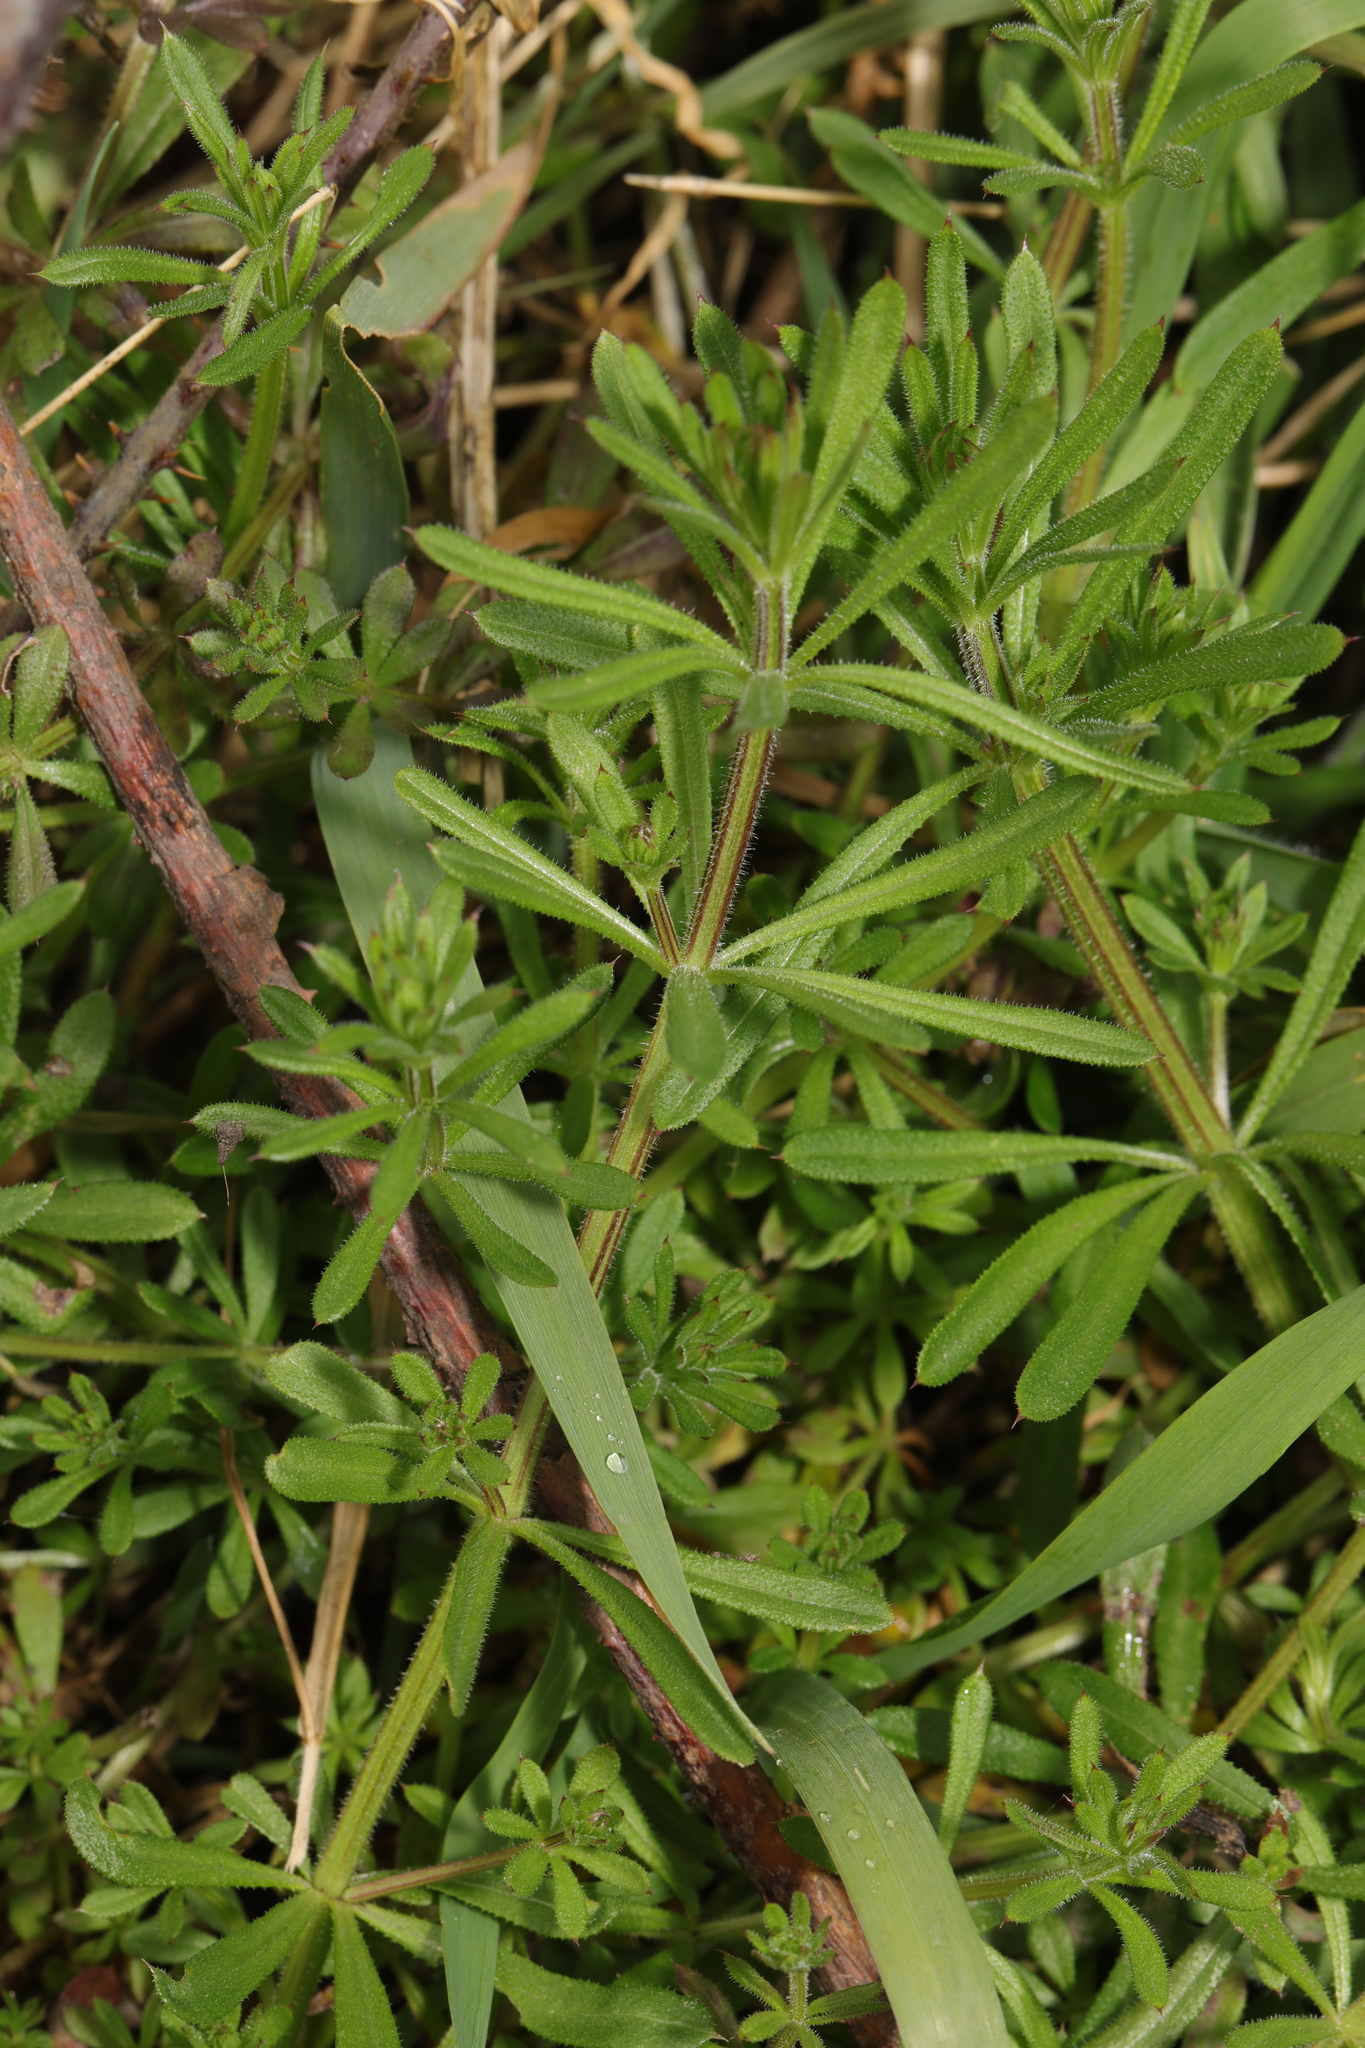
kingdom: Plantae
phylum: Tracheophyta
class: Magnoliopsida
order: Gentianales
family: Rubiaceae
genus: Galium
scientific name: Galium aparine
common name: Cleavers
